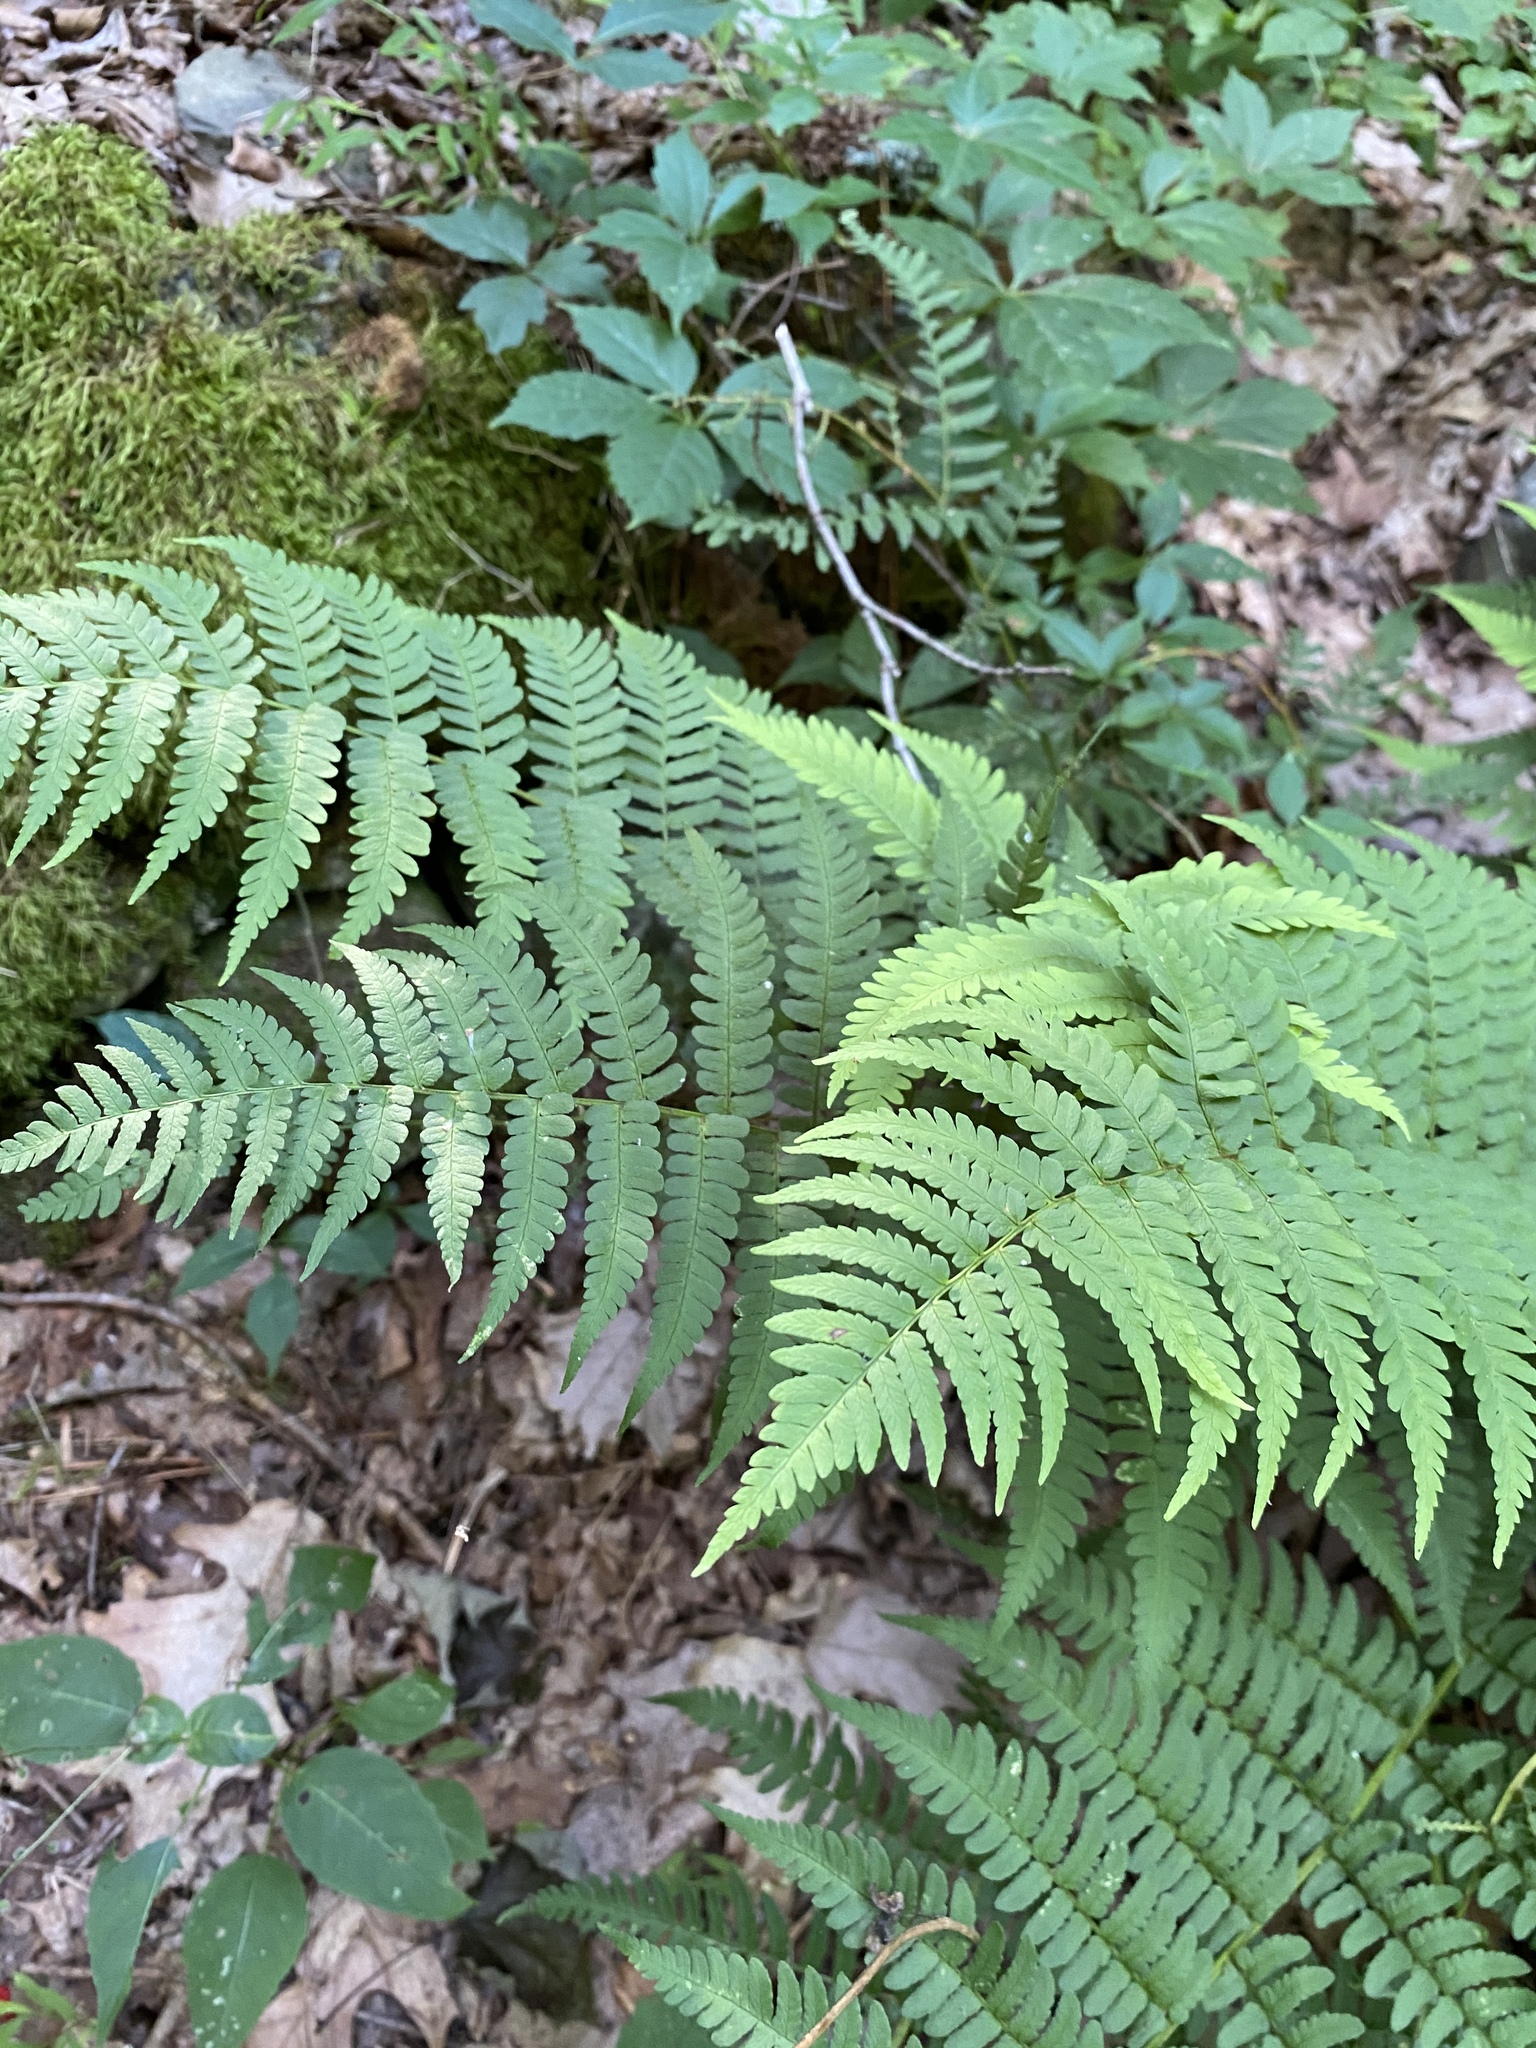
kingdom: Plantae
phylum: Tracheophyta
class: Polypodiopsida
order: Polypodiales
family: Dryopteridaceae
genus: Dryopteris
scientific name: Dryopteris marginalis
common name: Marginal wood fern
